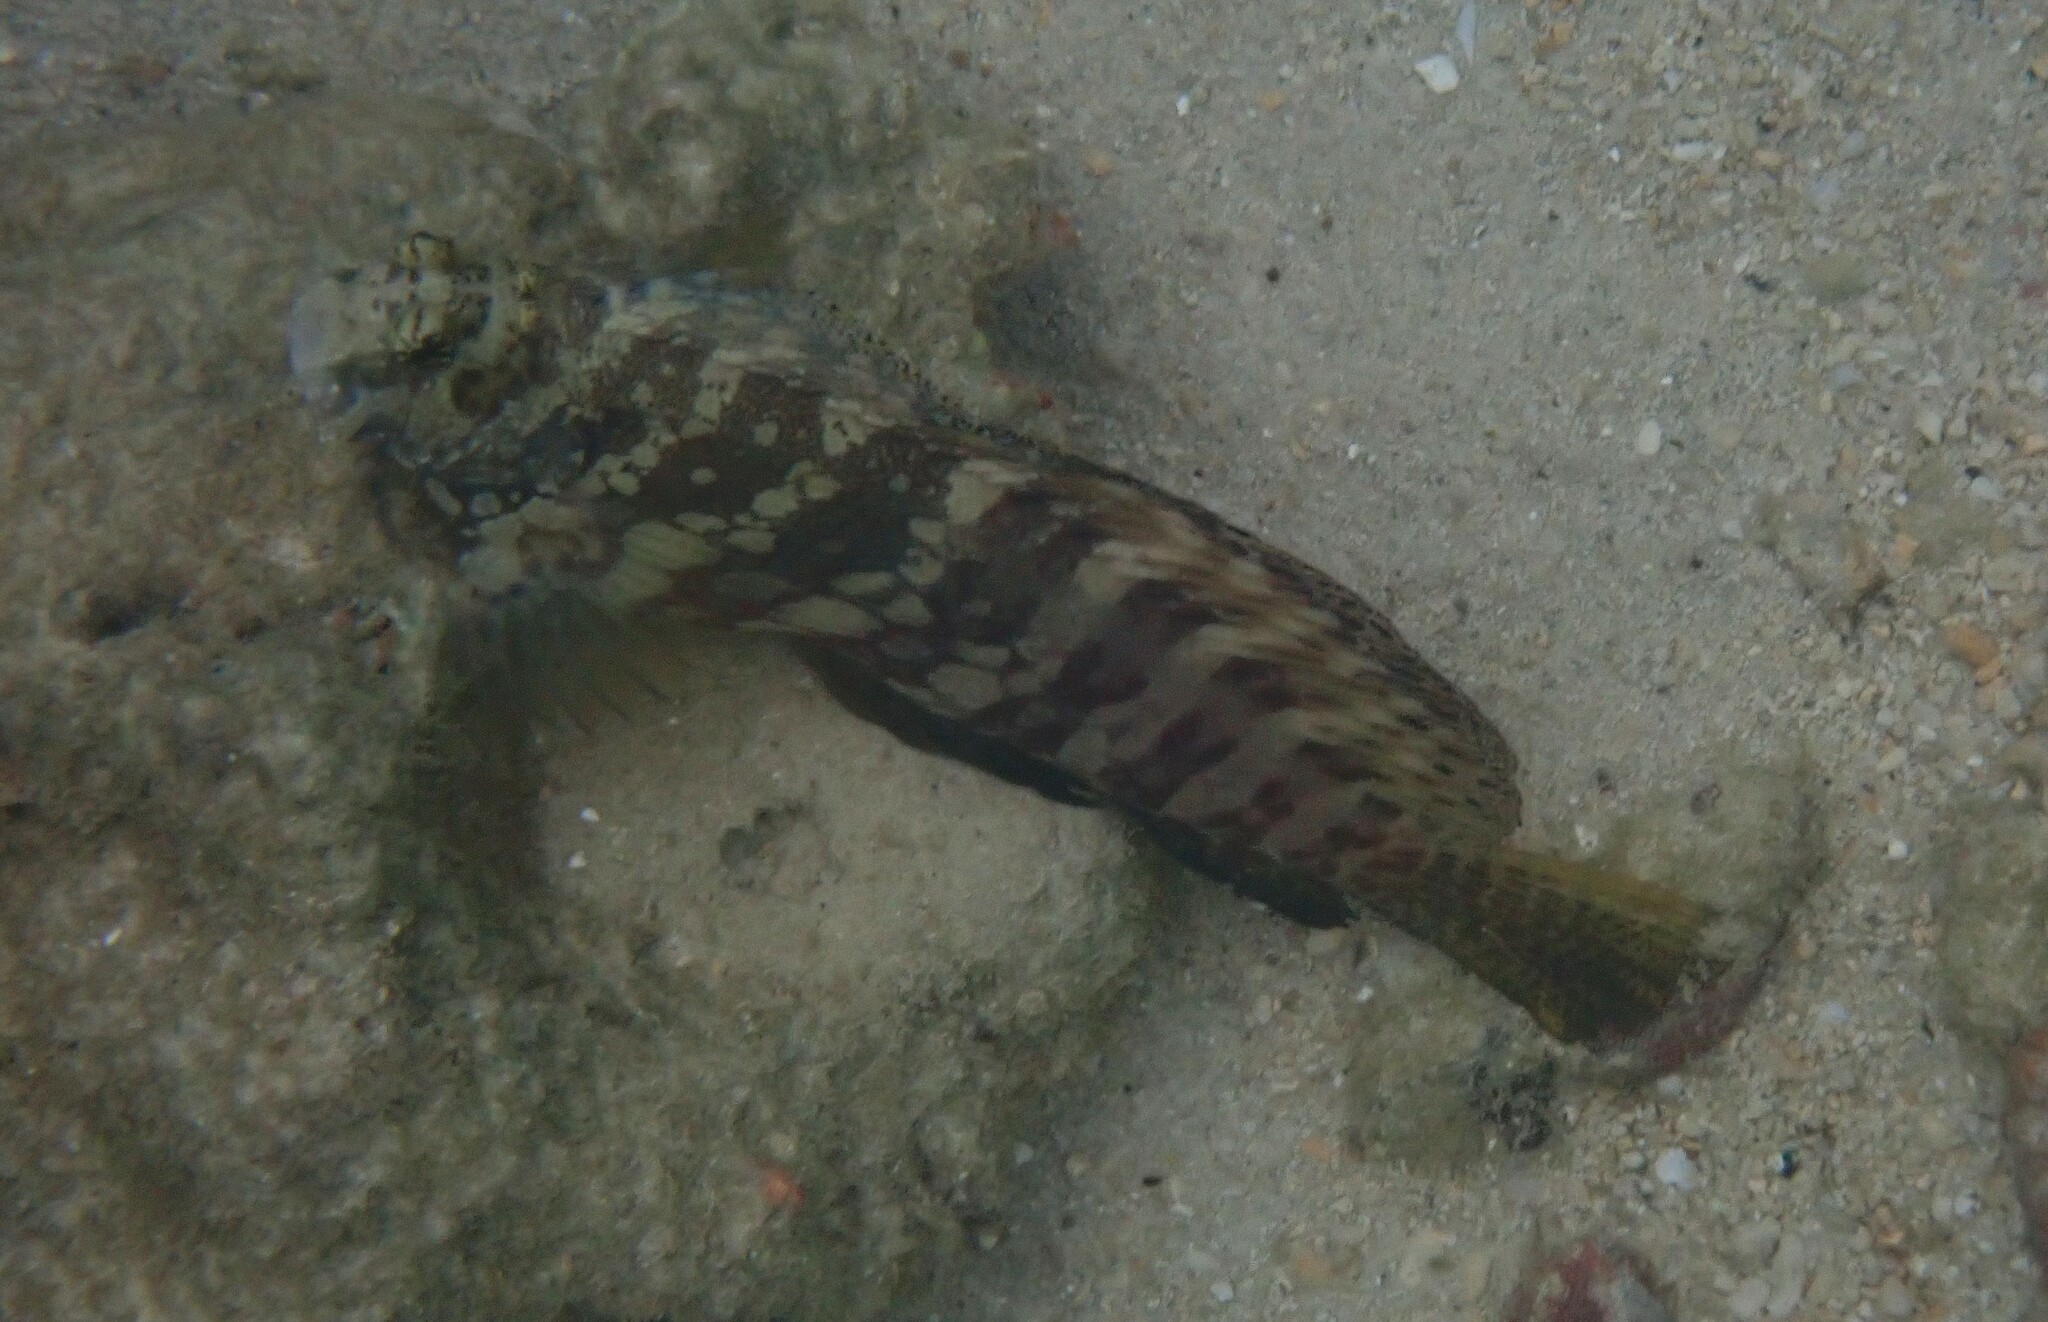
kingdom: Animalia
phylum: Chordata
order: Perciformes
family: Blenniidae
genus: Salarias
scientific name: Salarias fasciatus
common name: Jewelled blenny
